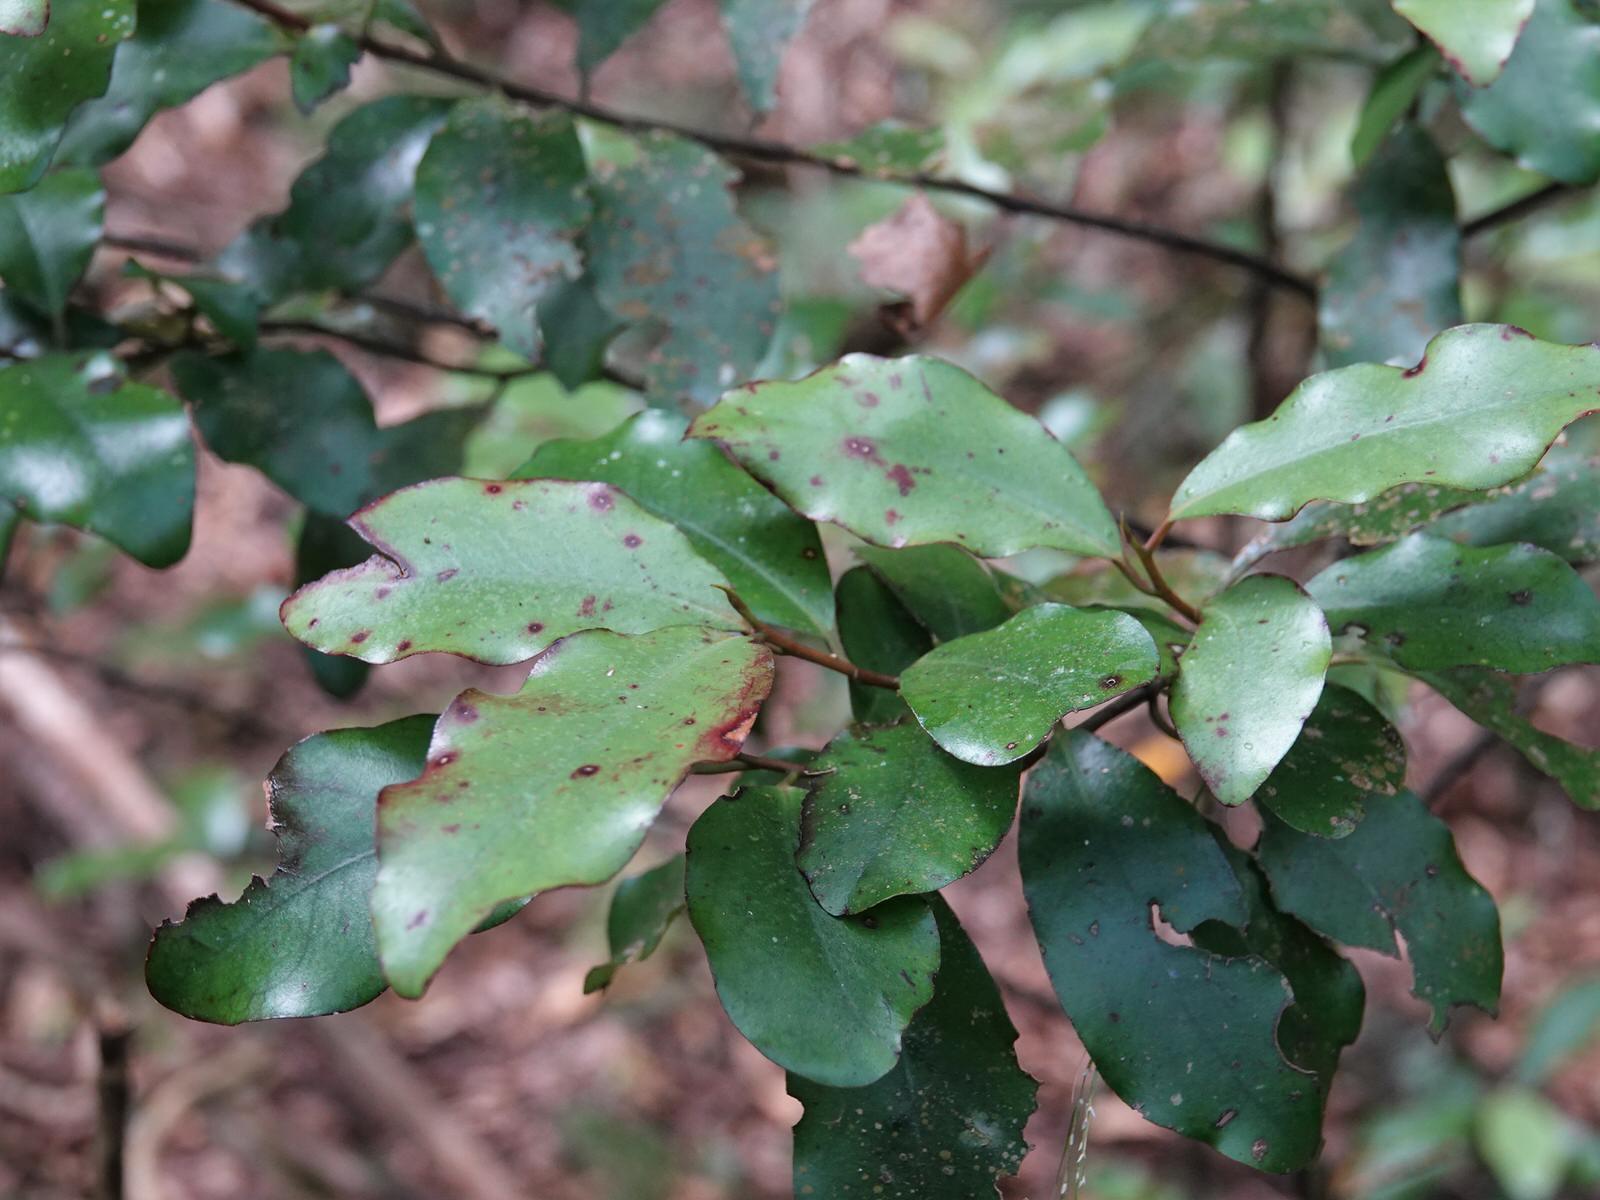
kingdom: Plantae
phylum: Tracheophyta
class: Magnoliopsida
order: Canellales
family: Winteraceae
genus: Pseudowintera
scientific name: Pseudowintera colorata
